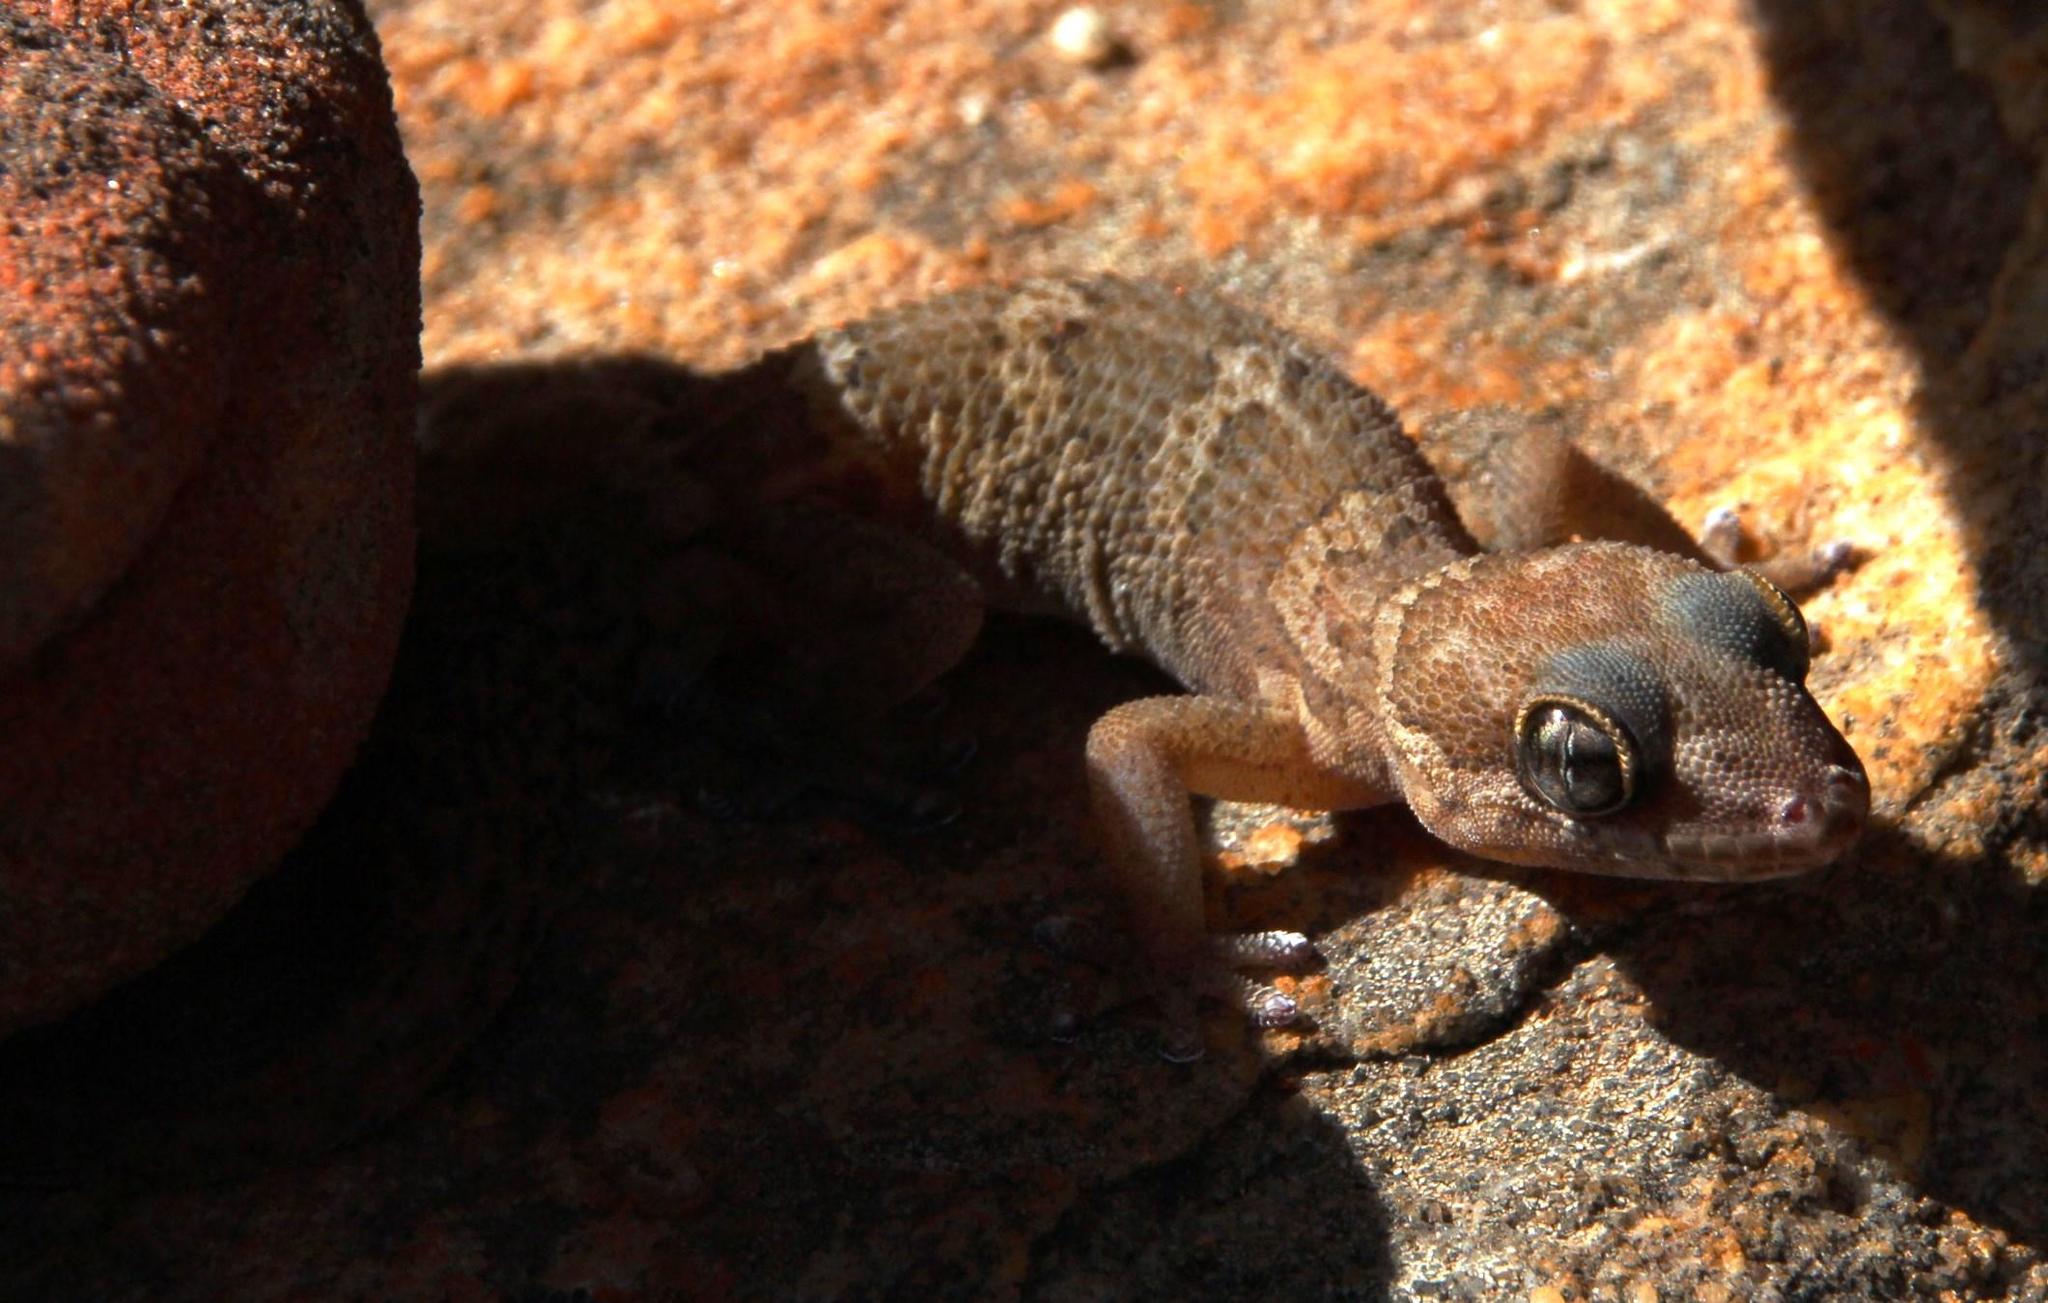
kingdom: Animalia
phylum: Chordata
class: Squamata
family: Gekkonidae
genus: Pachydactylus
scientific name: Pachydactylus formosus
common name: Southern rough gecko
